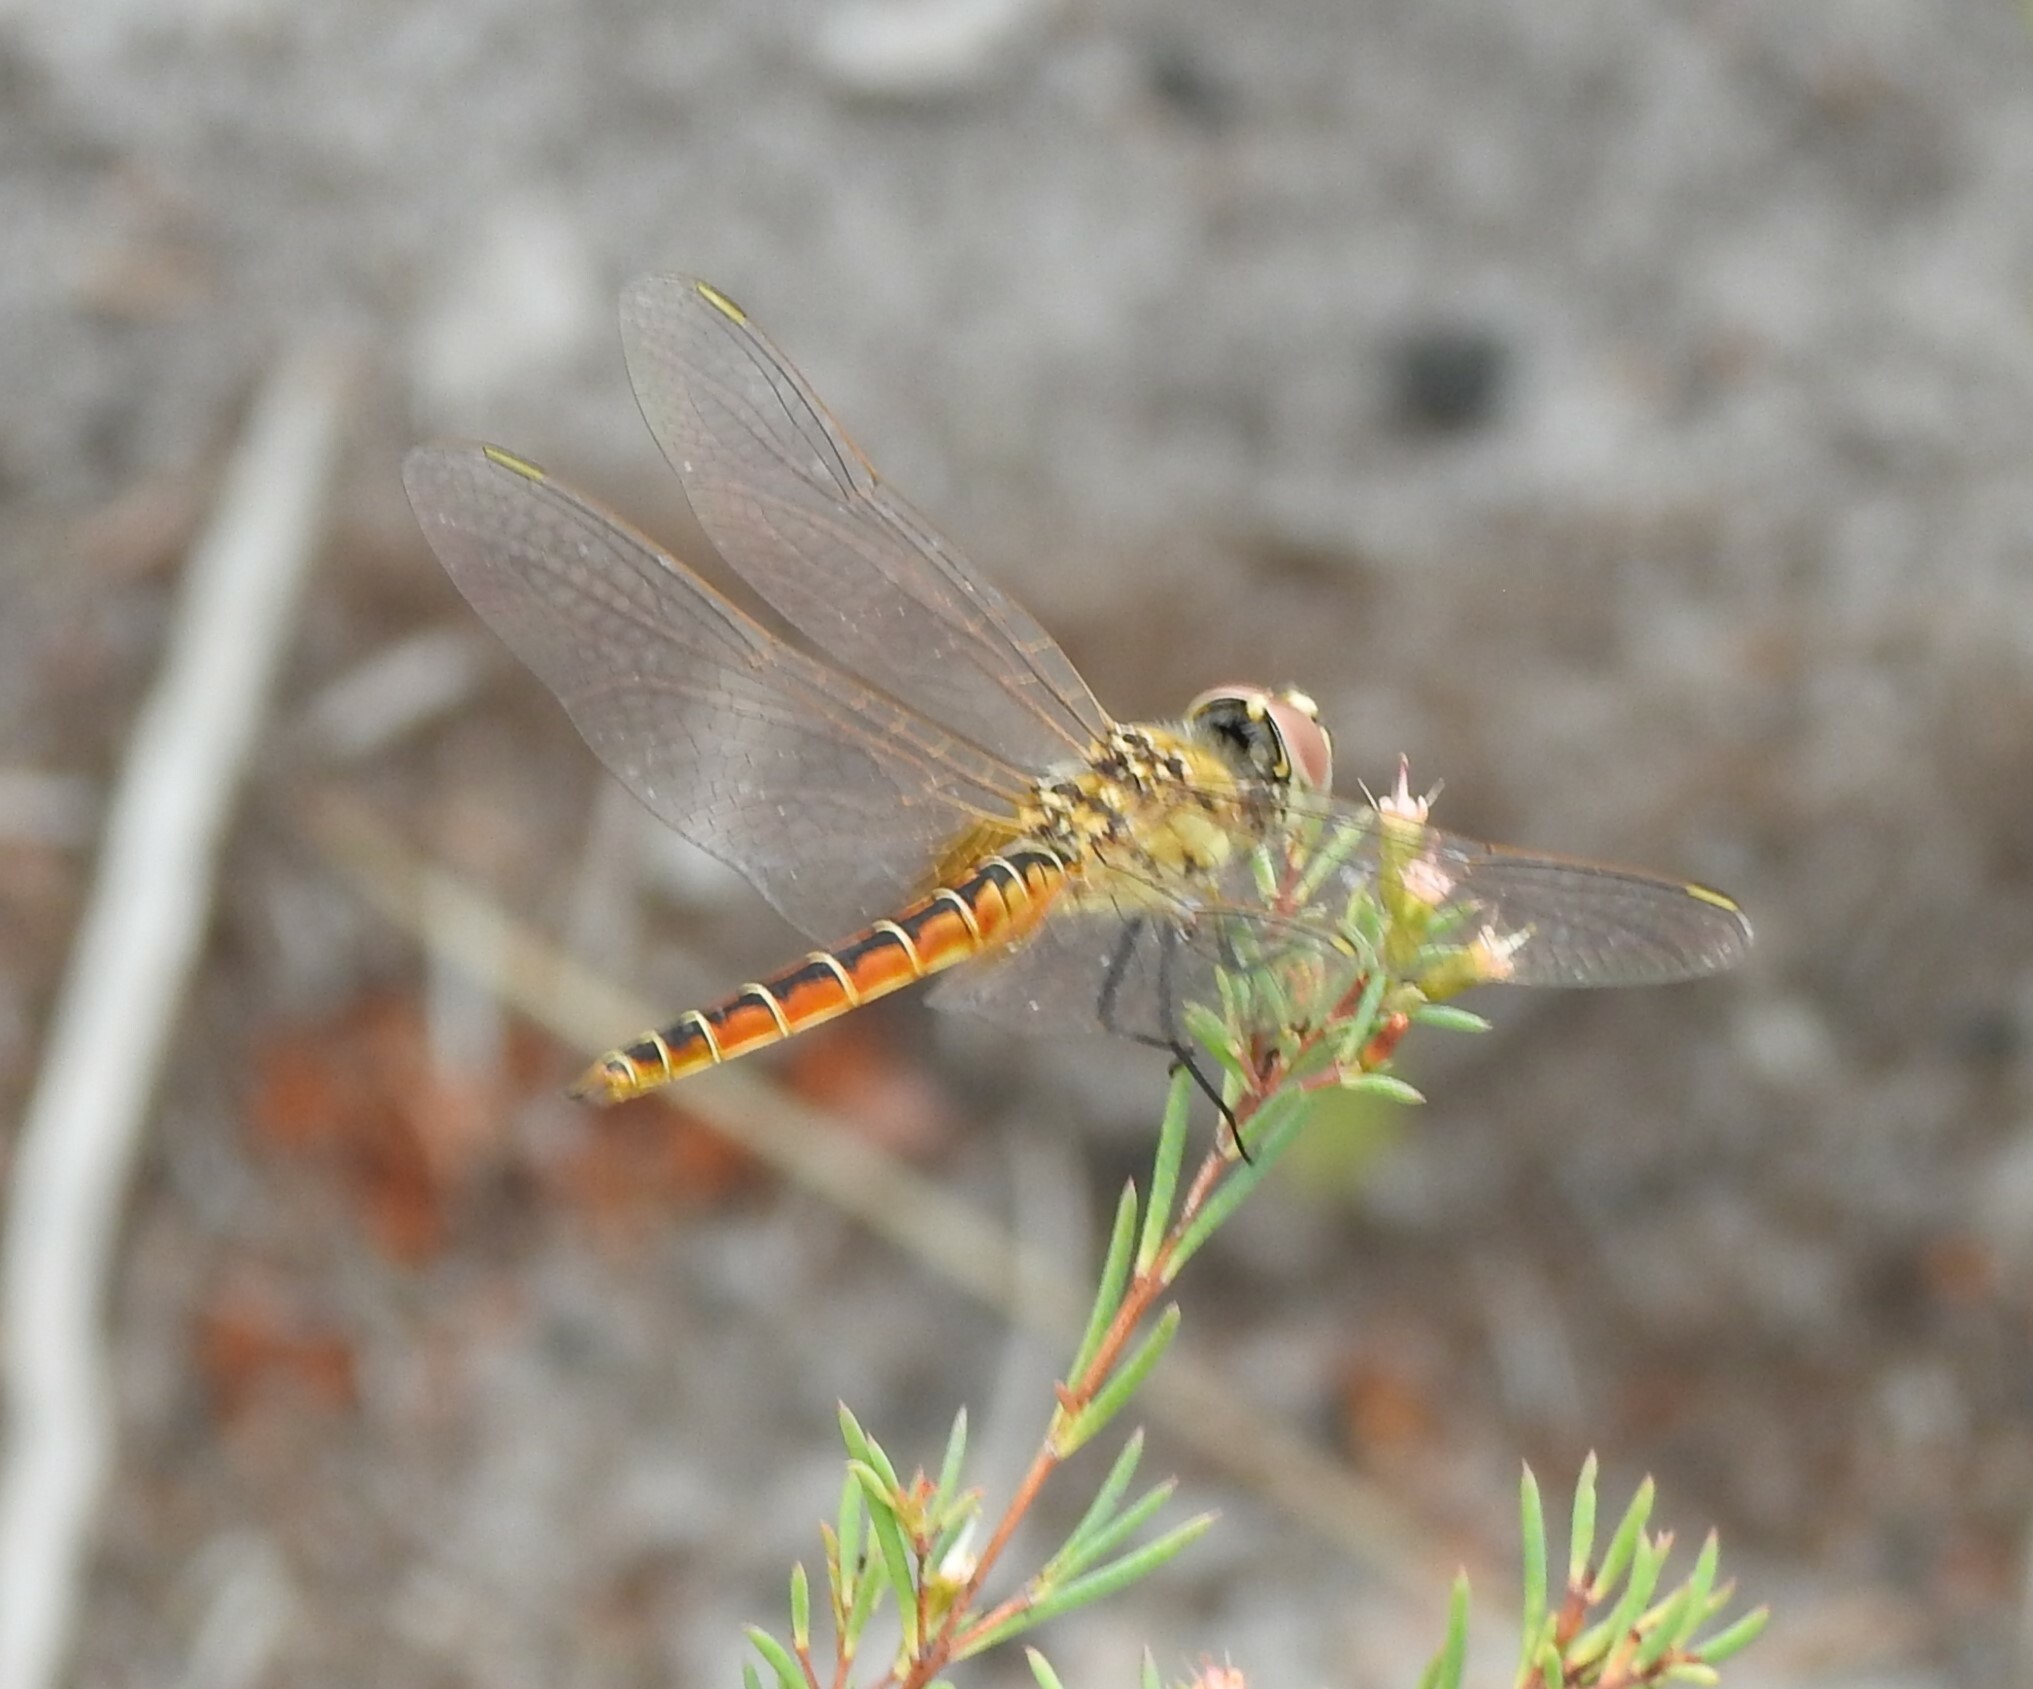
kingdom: Animalia
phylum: Arthropoda
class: Insecta
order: Odonata
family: Libellulidae
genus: Macrodiplax
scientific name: Macrodiplax cora
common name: Coastal glider
